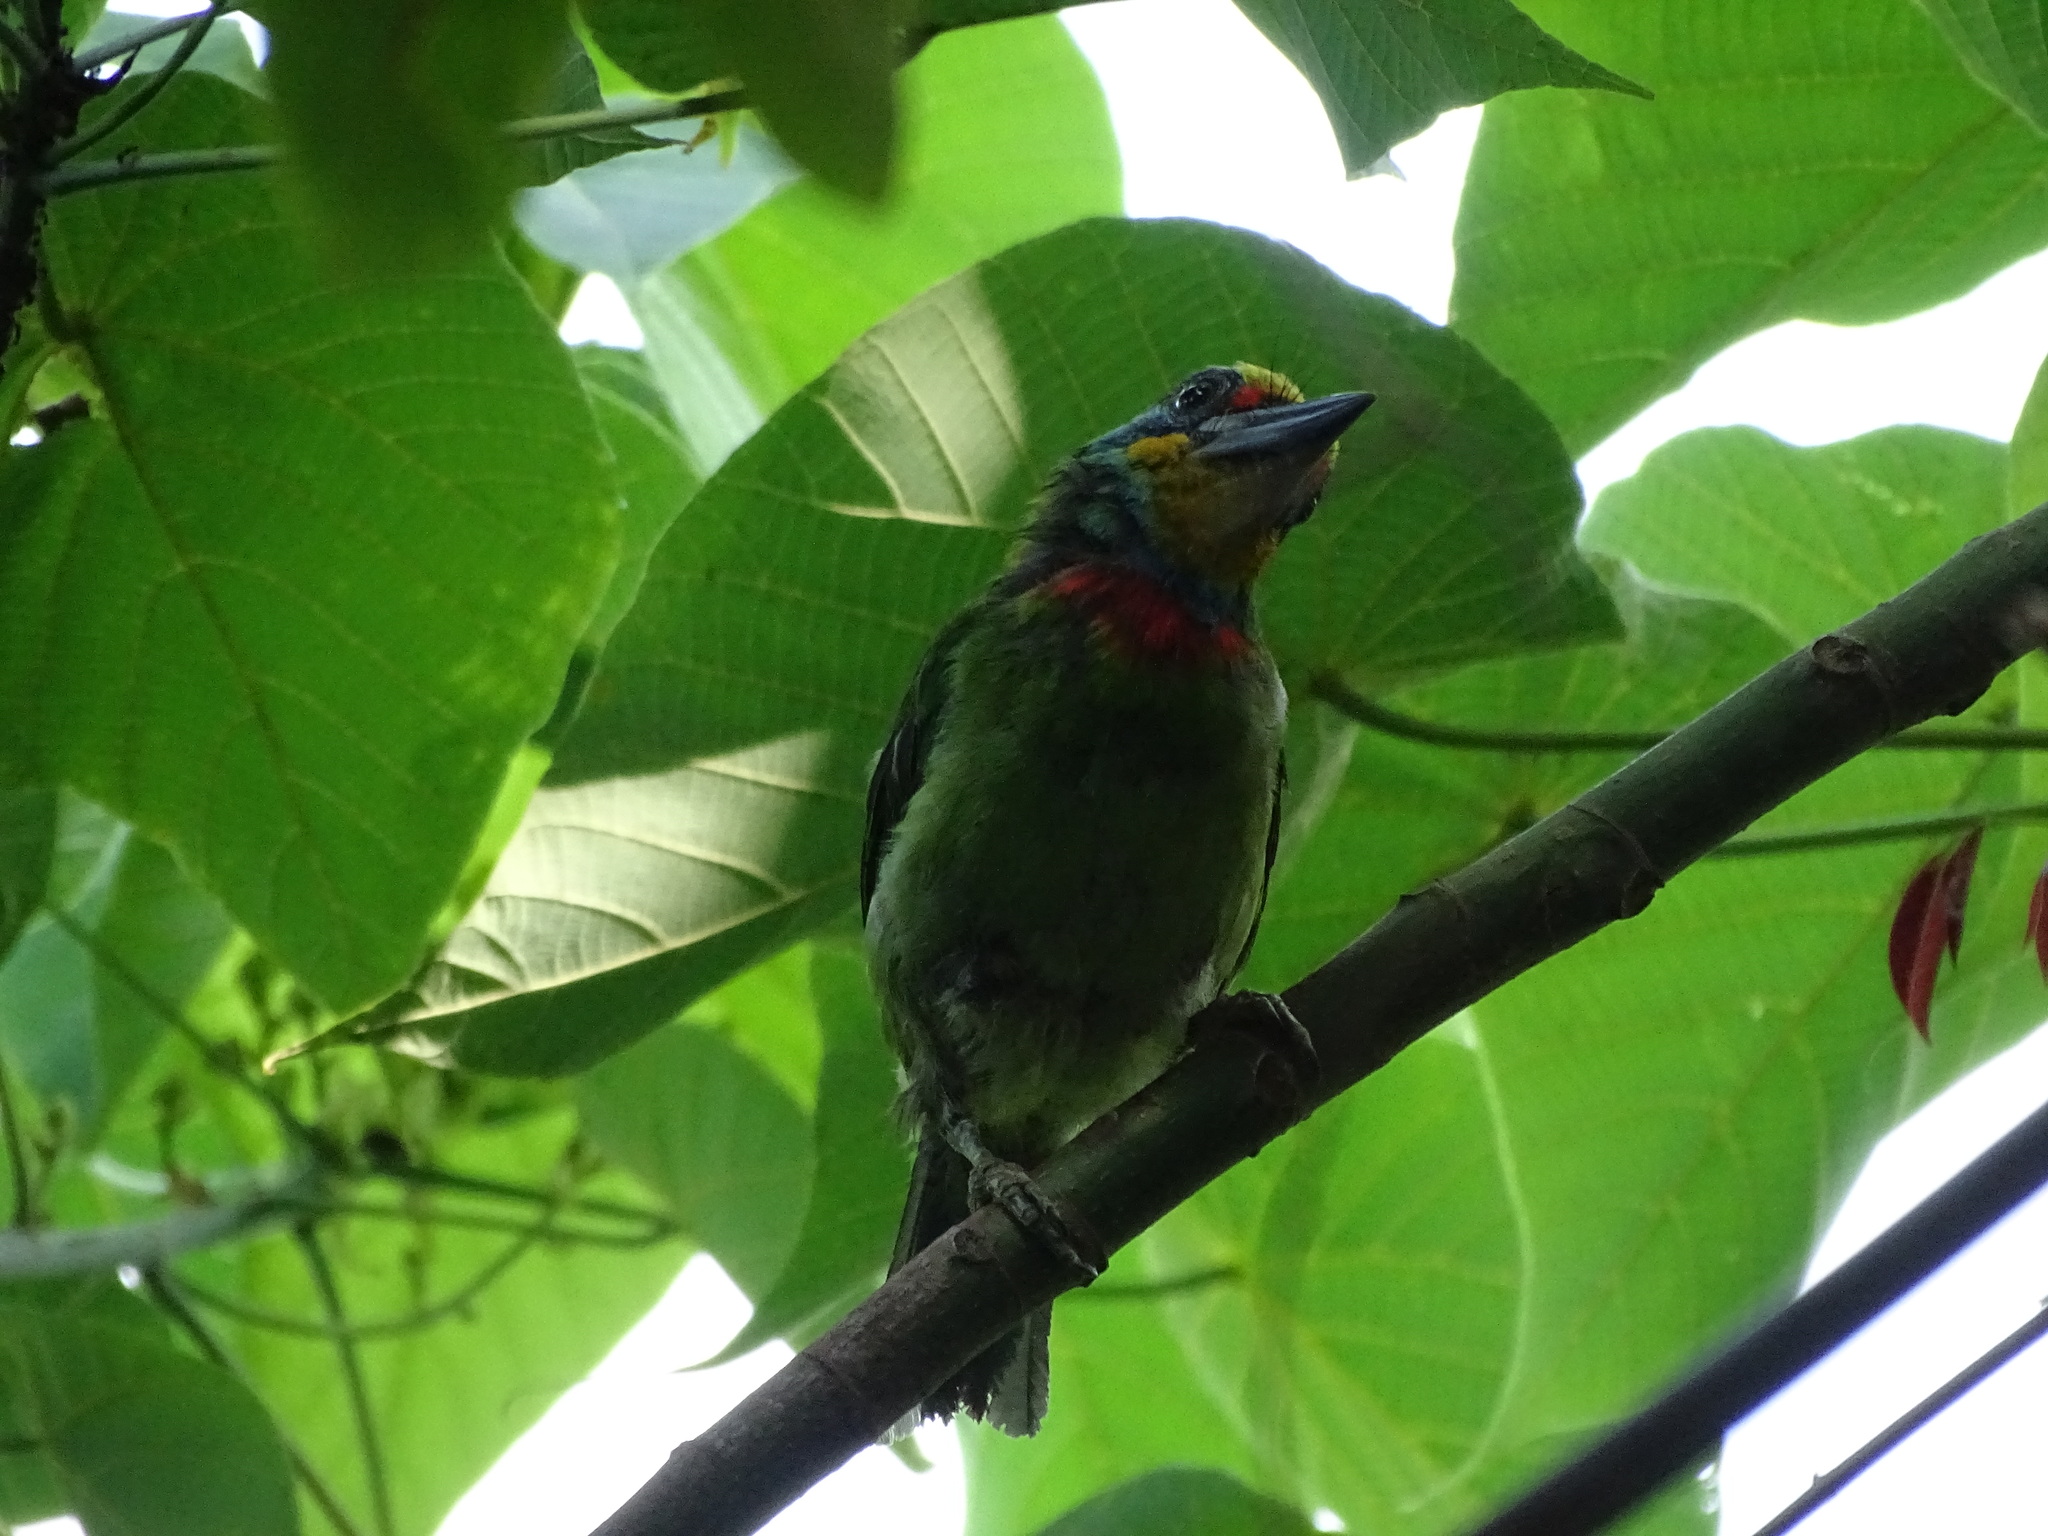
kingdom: Animalia
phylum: Chordata
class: Aves
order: Piciformes
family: Megalaimidae
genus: Psilopogon
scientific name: Psilopogon nuchalis
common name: Taiwan barbet
